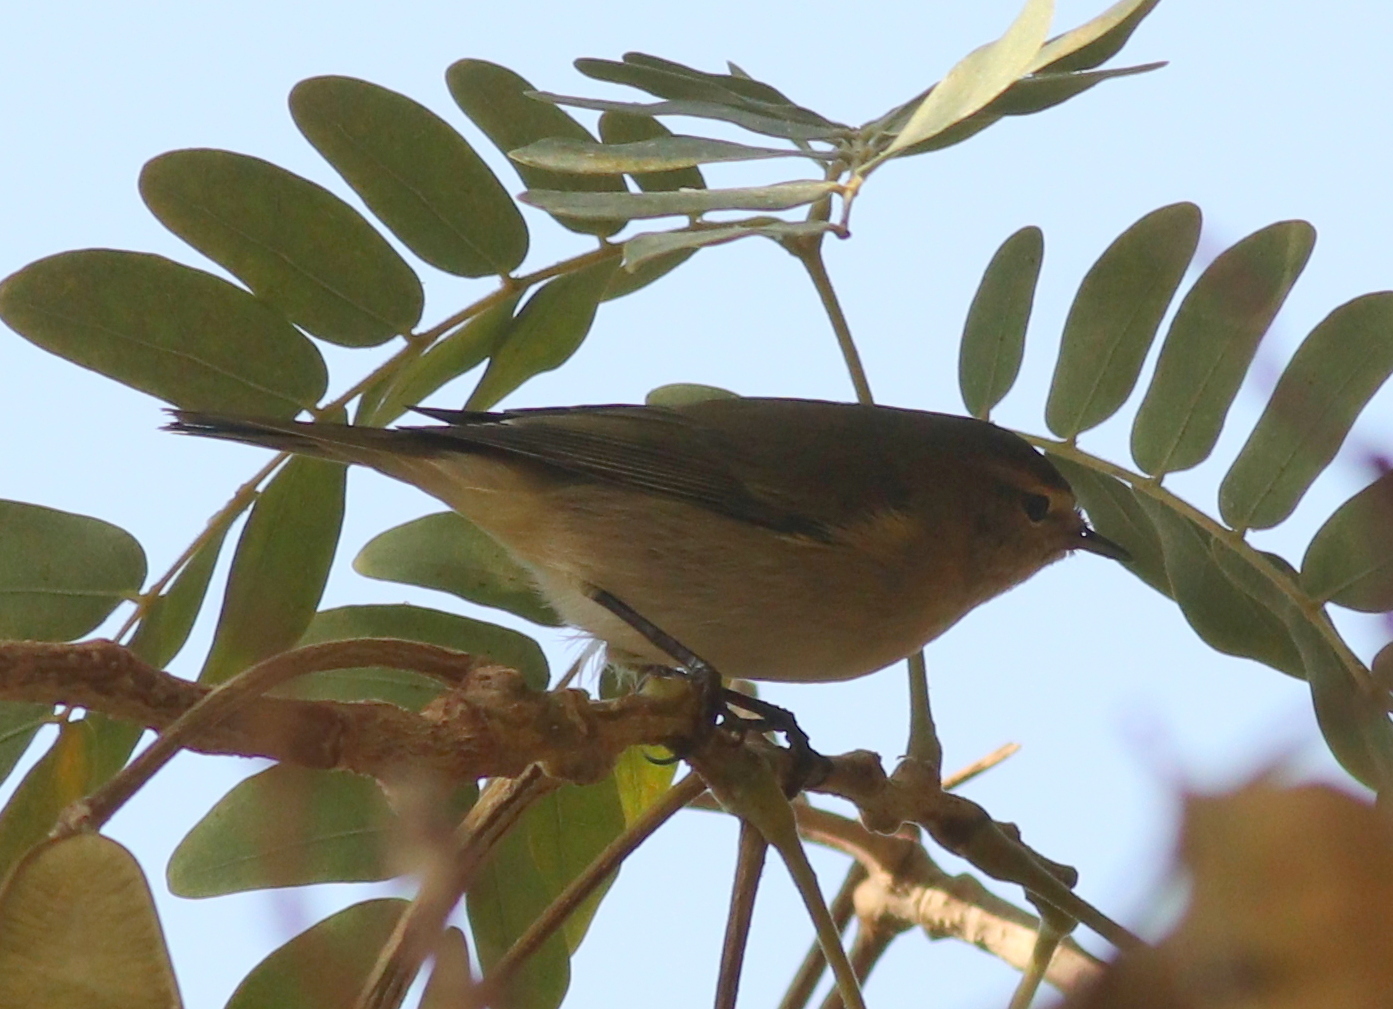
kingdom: Animalia
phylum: Chordata
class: Aves
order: Passeriformes
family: Phylloscopidae
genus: Phylloscopus
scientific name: Phylloscopus collybita
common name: Common chiffchaff
